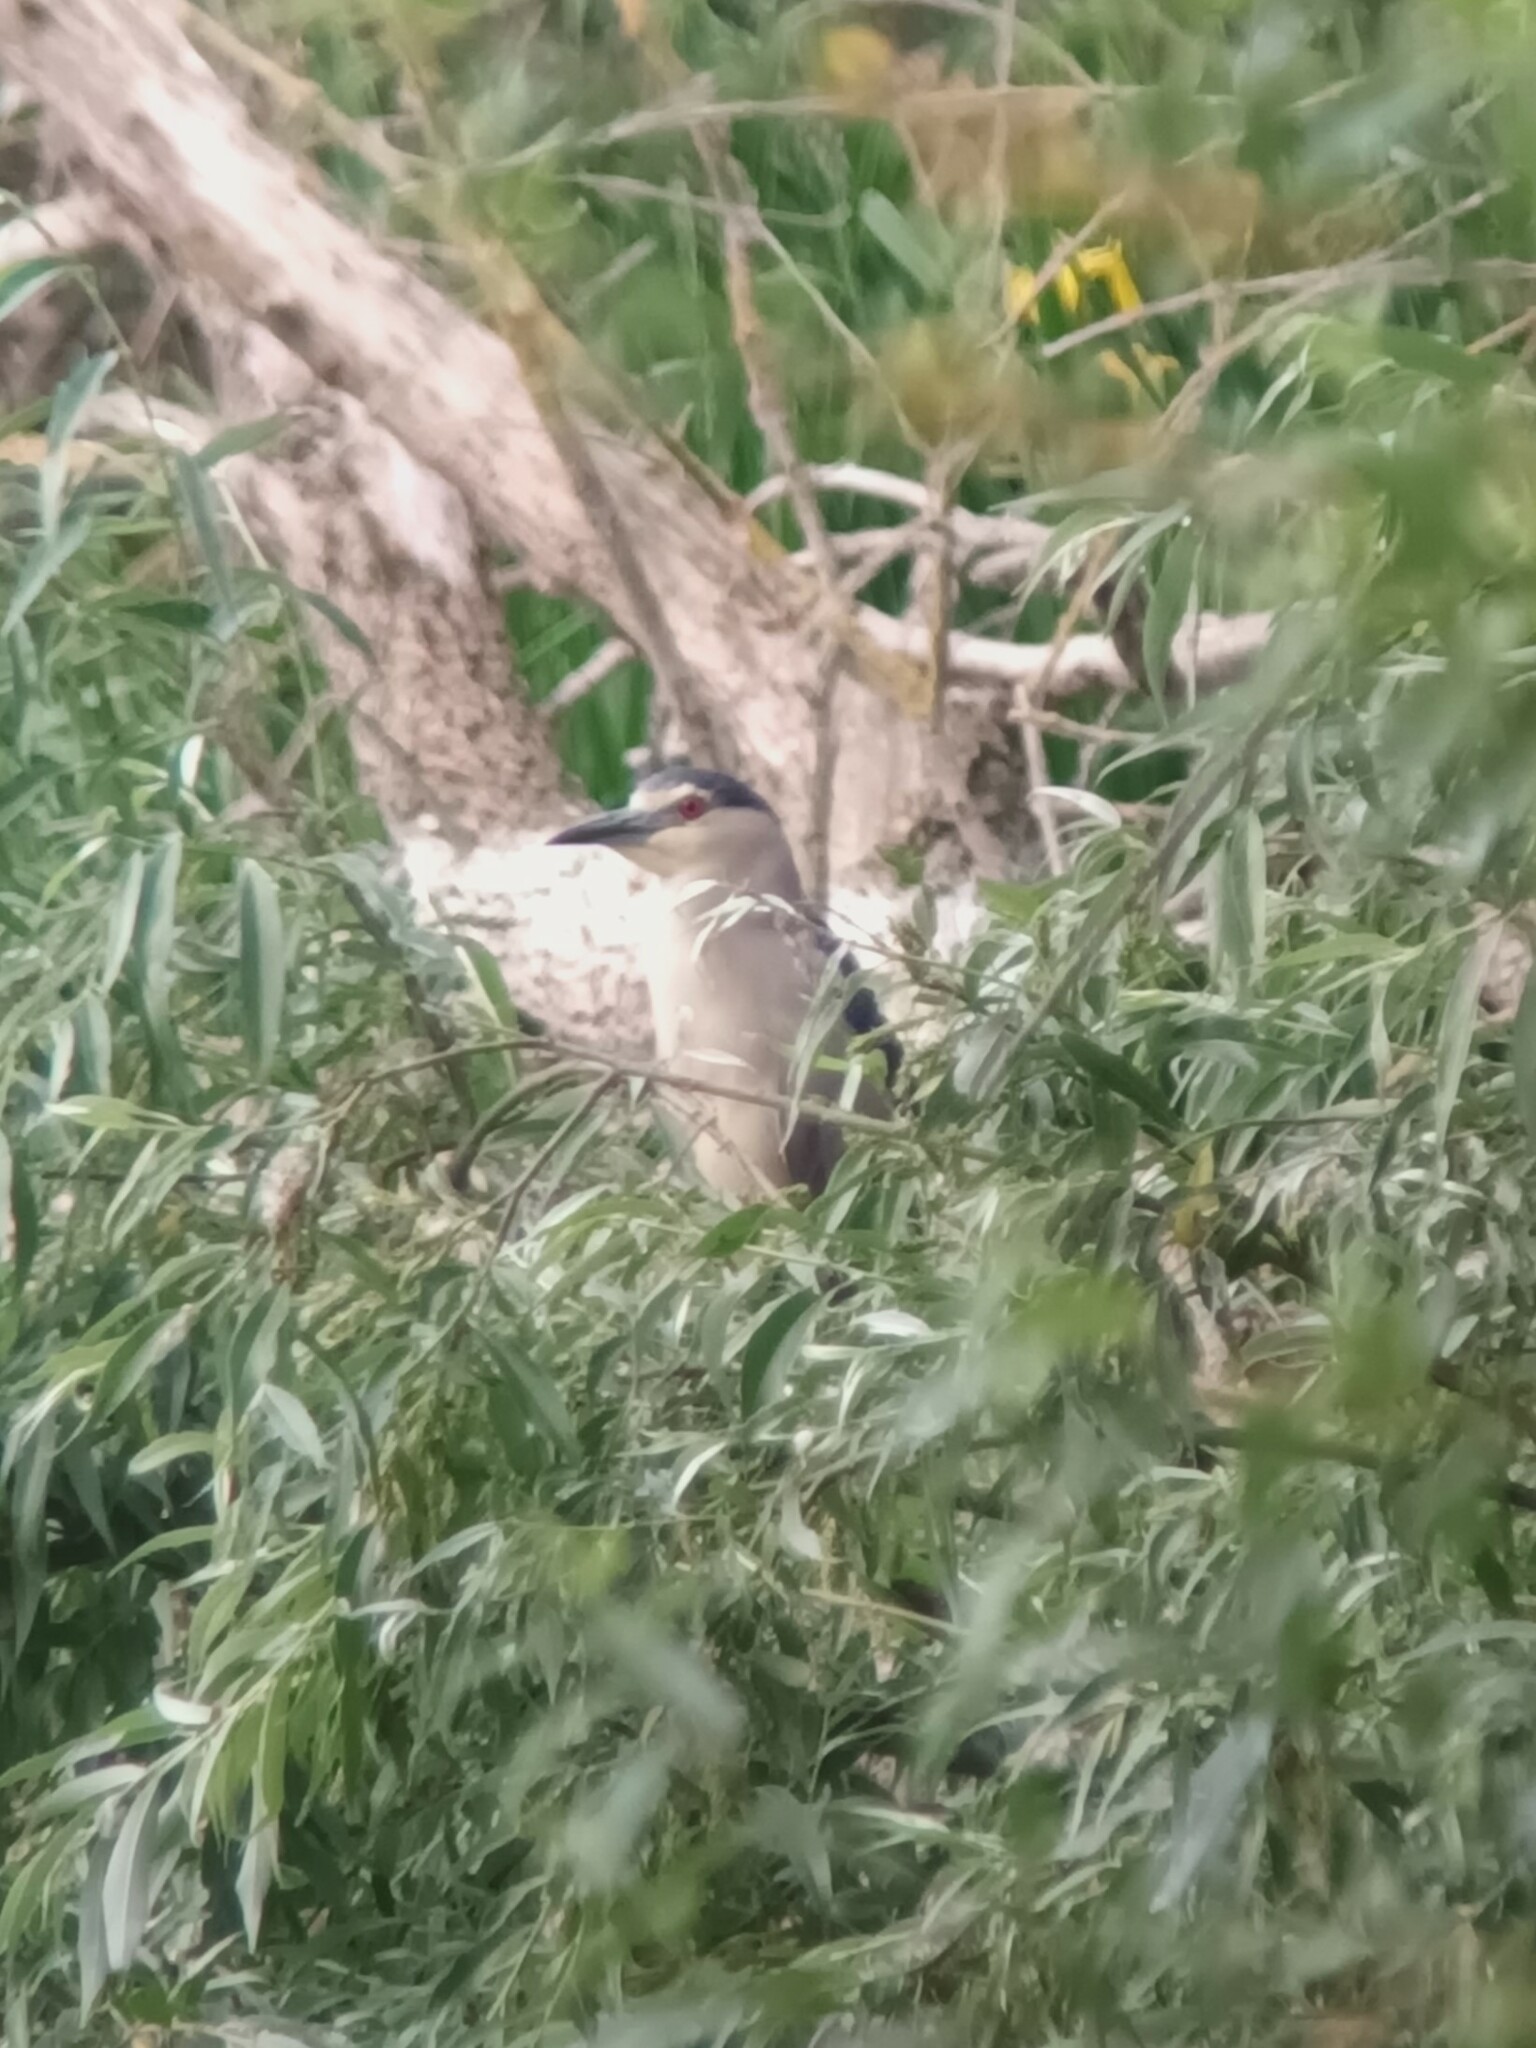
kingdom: Animalia
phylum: Chordata
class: Aves
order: Pelecaniformes
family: Ardeidae
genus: Nycticorax
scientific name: Nycticorax nycticorax
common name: Black-crowned night heron
